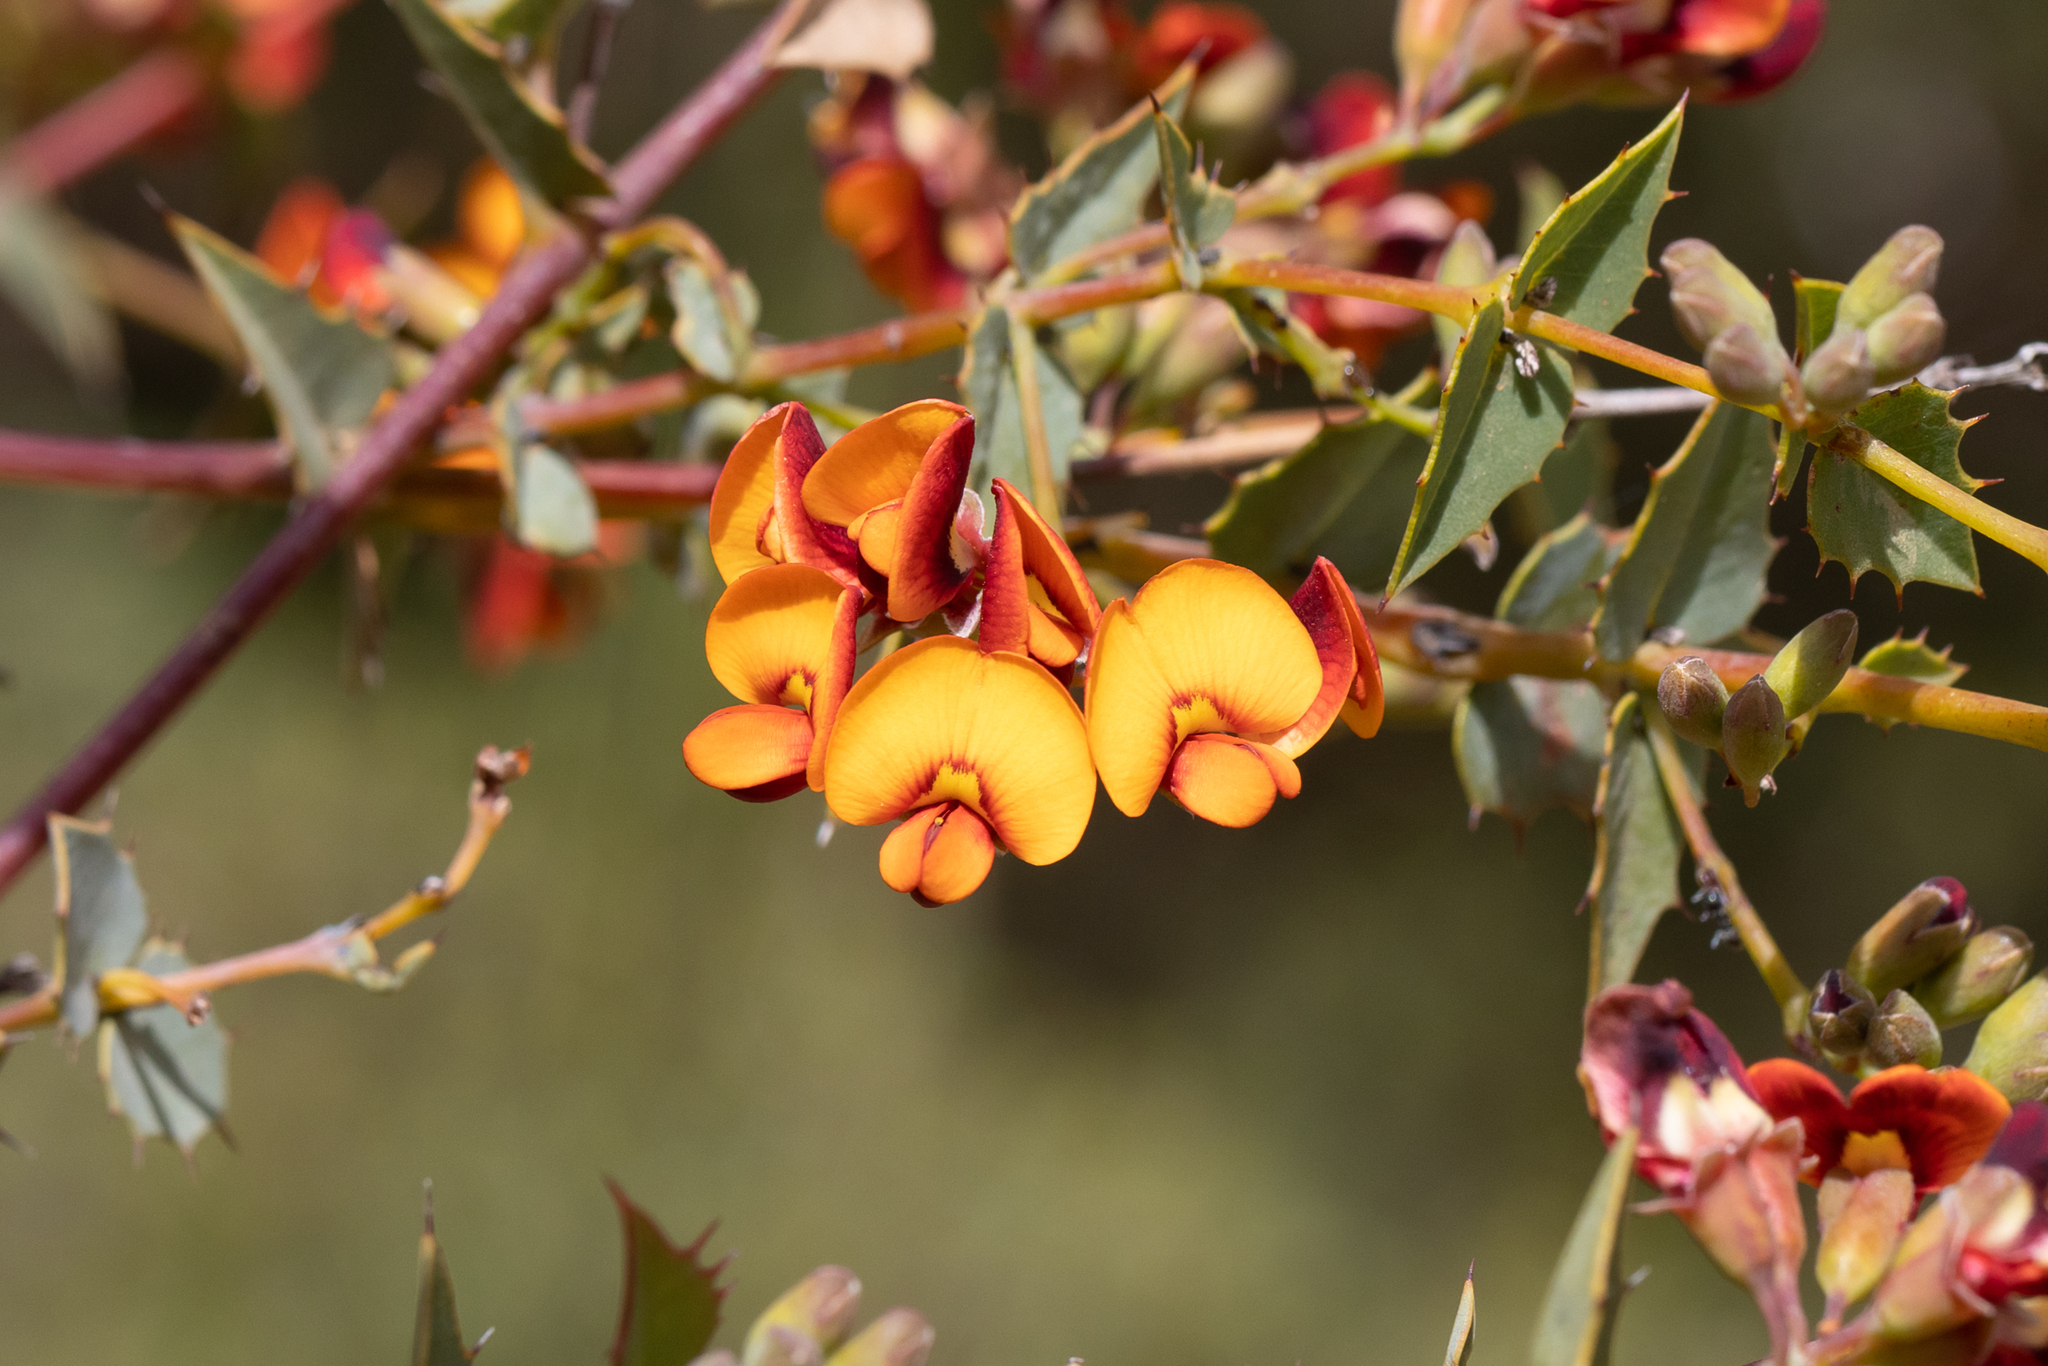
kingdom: Plantae
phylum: Tracheophyta
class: Magnoliopsida
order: Fabales
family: Fabaceae
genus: Gastrolobium
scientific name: Gastrolobium spinosum
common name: Prickly poison
